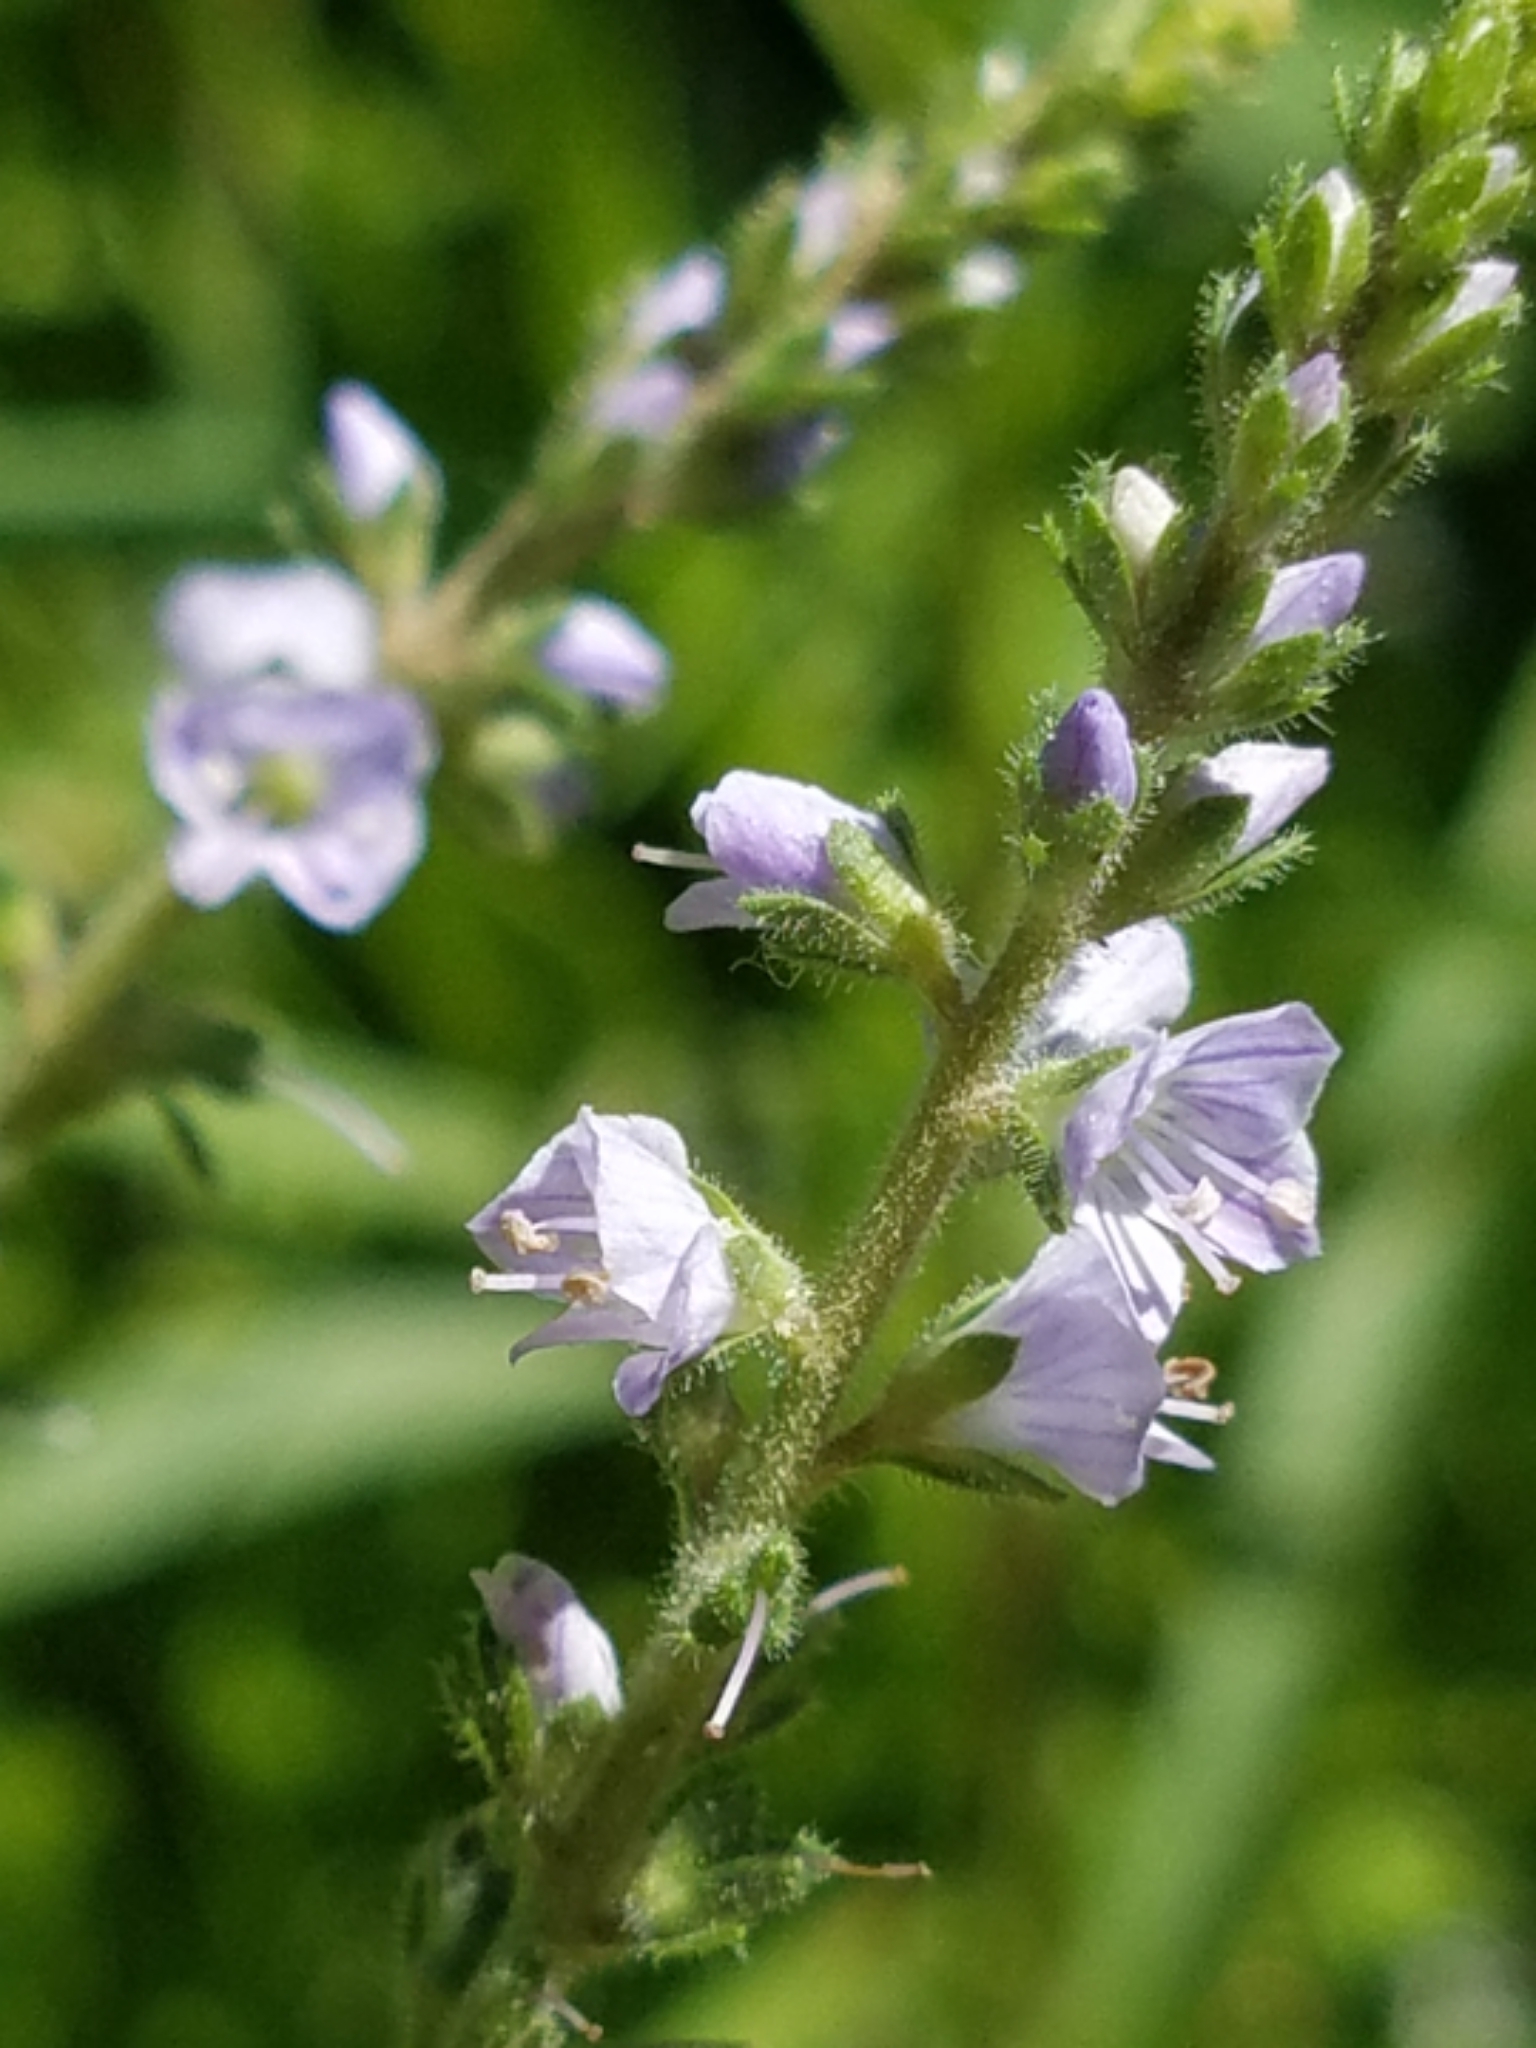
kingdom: Plantae
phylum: Tracheophyta
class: Magnoliopsida
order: Lamiales
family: Plantaginaceae
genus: Veronica
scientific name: Veronica officinalis
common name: Common speedwell
